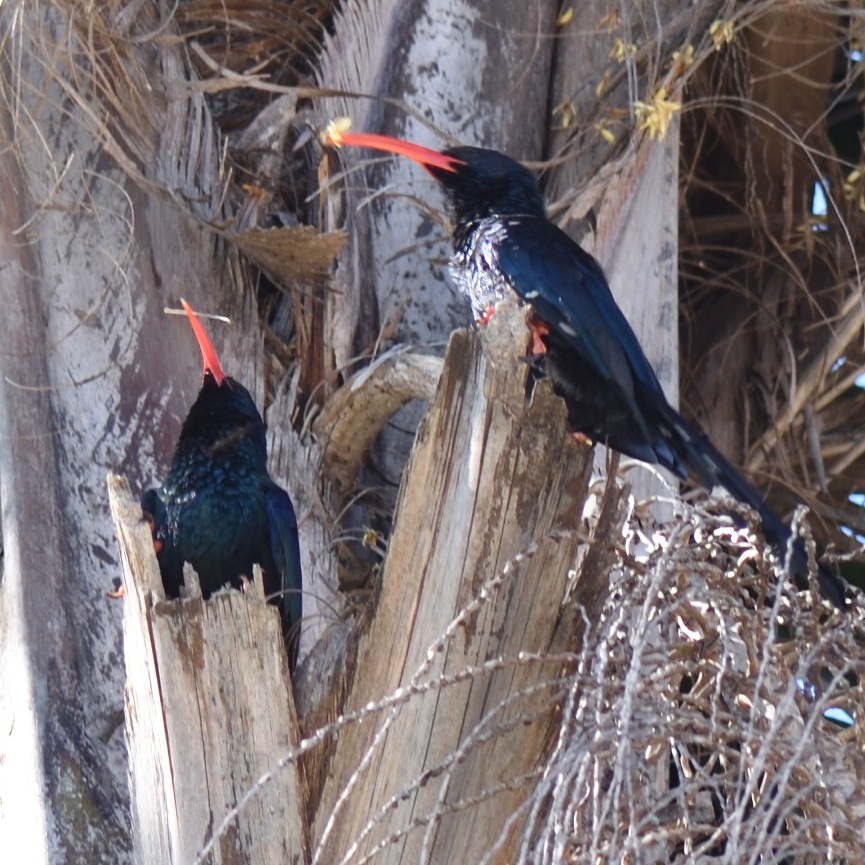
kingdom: Animalia
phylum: Chordata
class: Aves
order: Bucerotiformes
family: Phoeniculidae
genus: Phoeniculus
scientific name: Phoeniculus purpureus
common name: Green woodhoopoe
